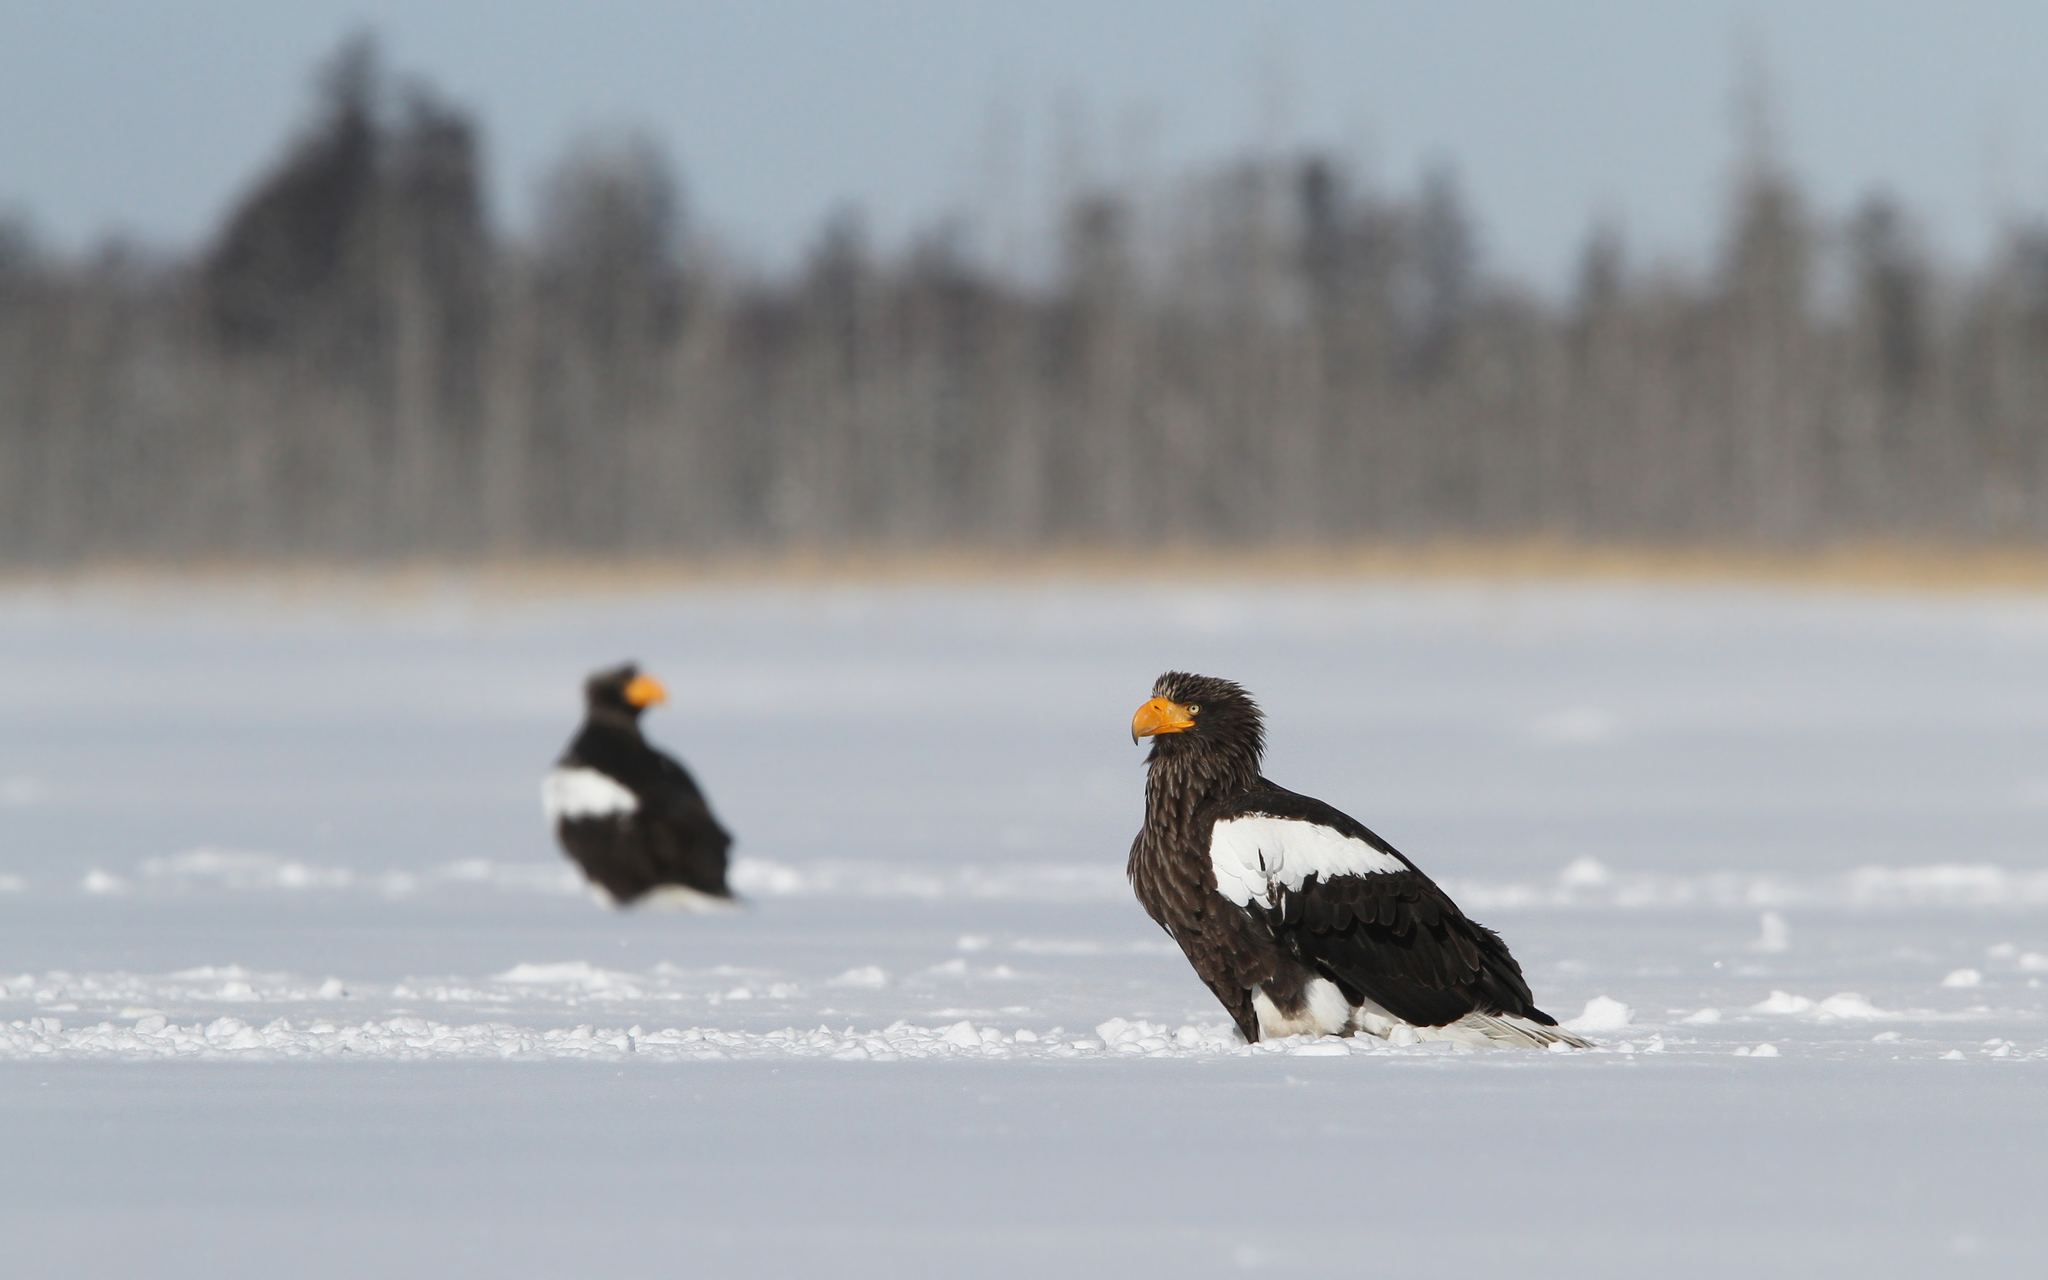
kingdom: Animalia
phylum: Chordata
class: Aves
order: Accipitriformes
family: Accipitridae
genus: Haliaeetus
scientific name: Haliaeetus pelagicus
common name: Steller's sea eagle
